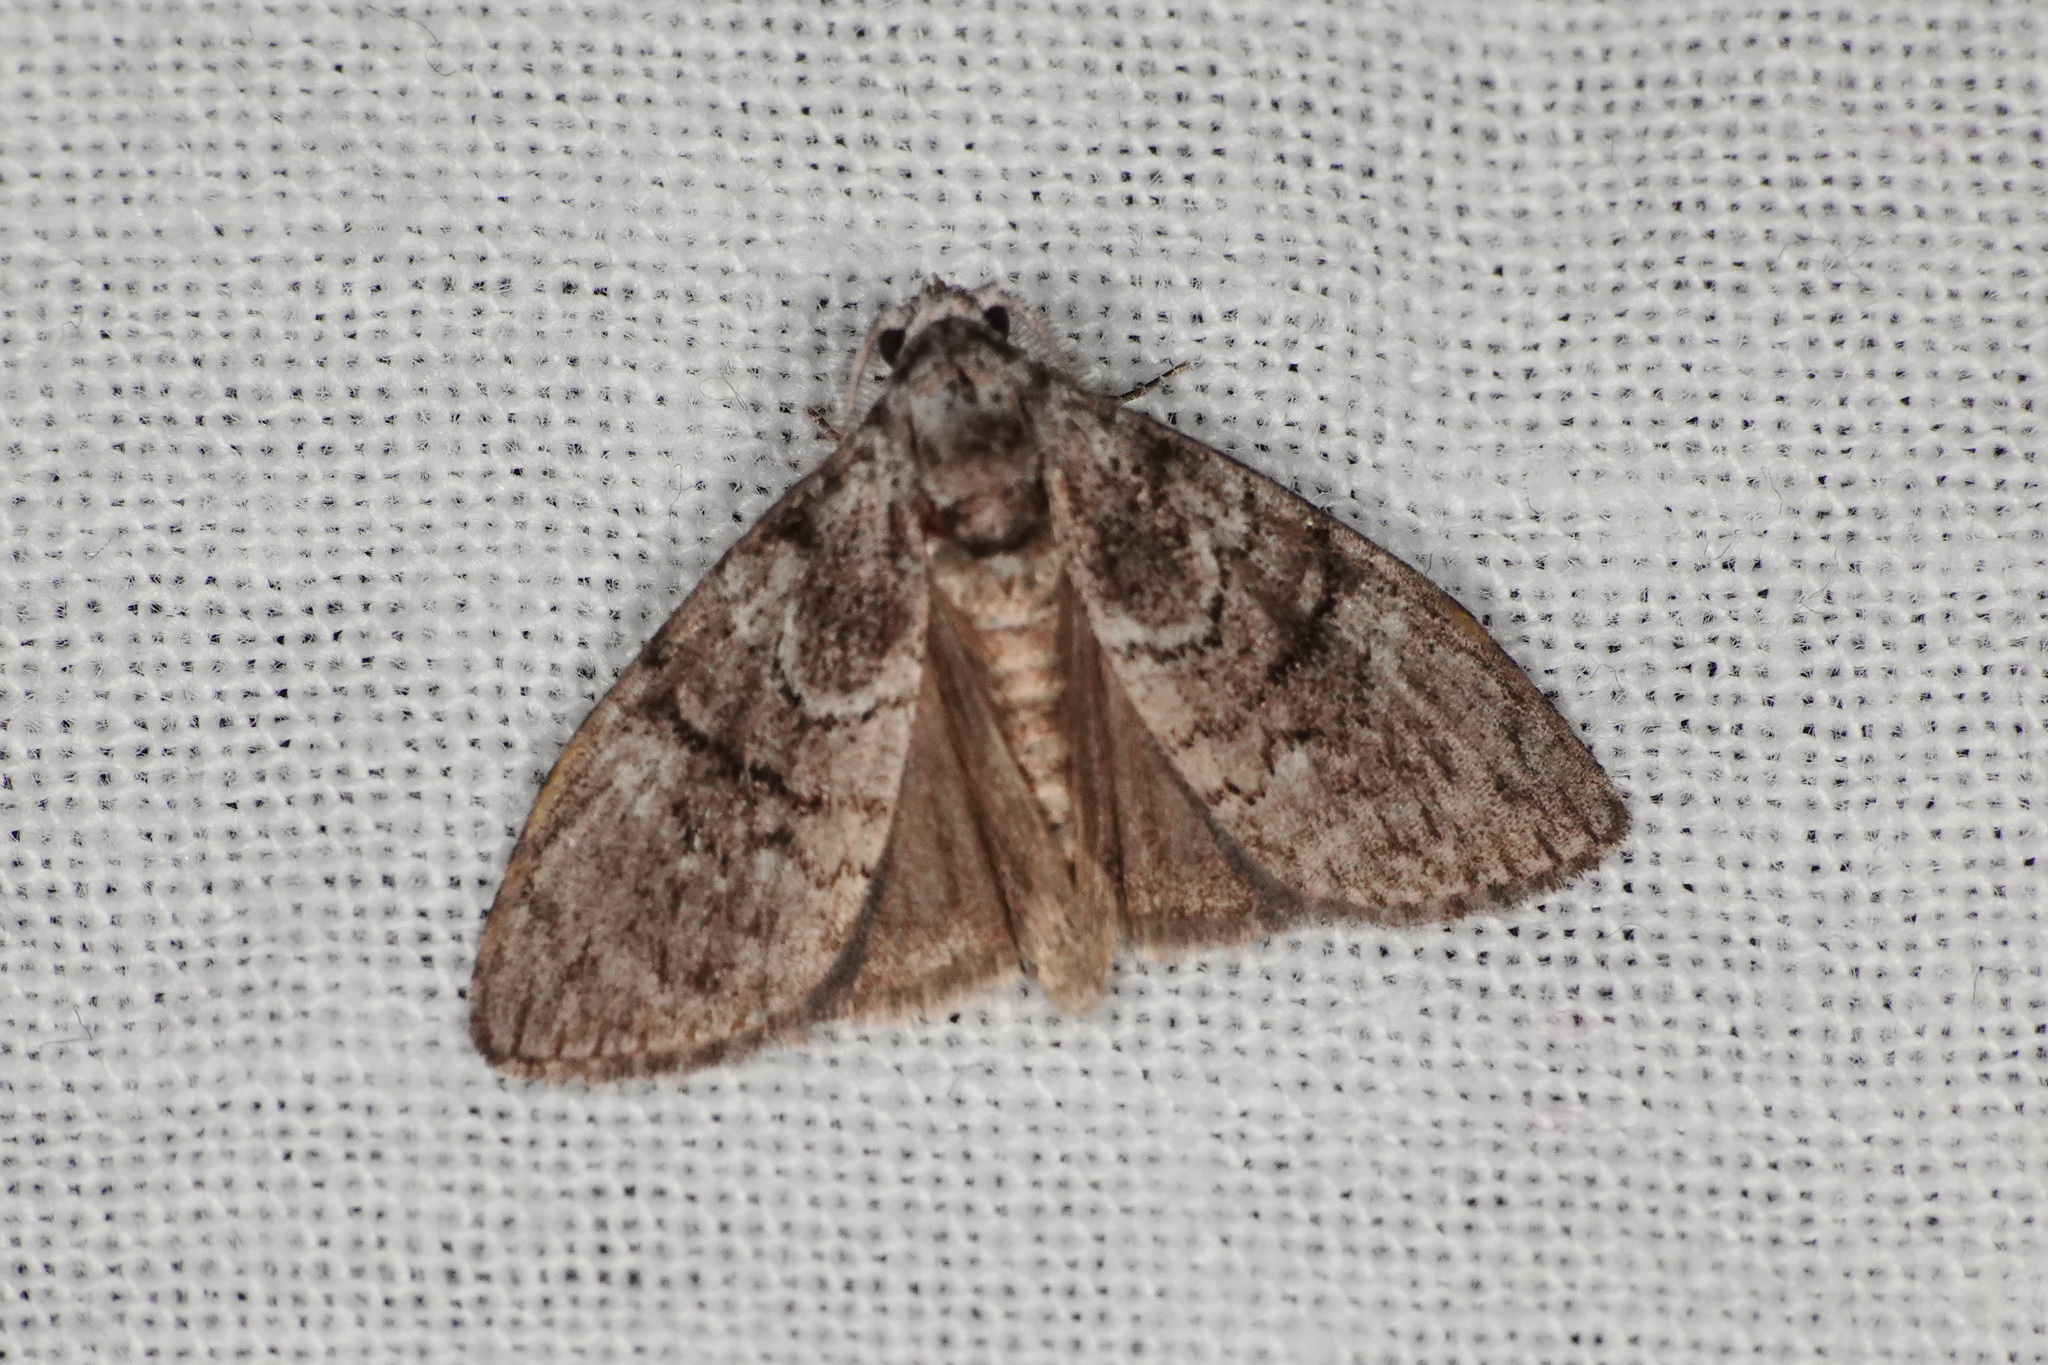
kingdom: Animalia
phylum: Arthropoda
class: Insecta
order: Lepidoptera
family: Nolidae
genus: Uraba
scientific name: Uraba lugens
